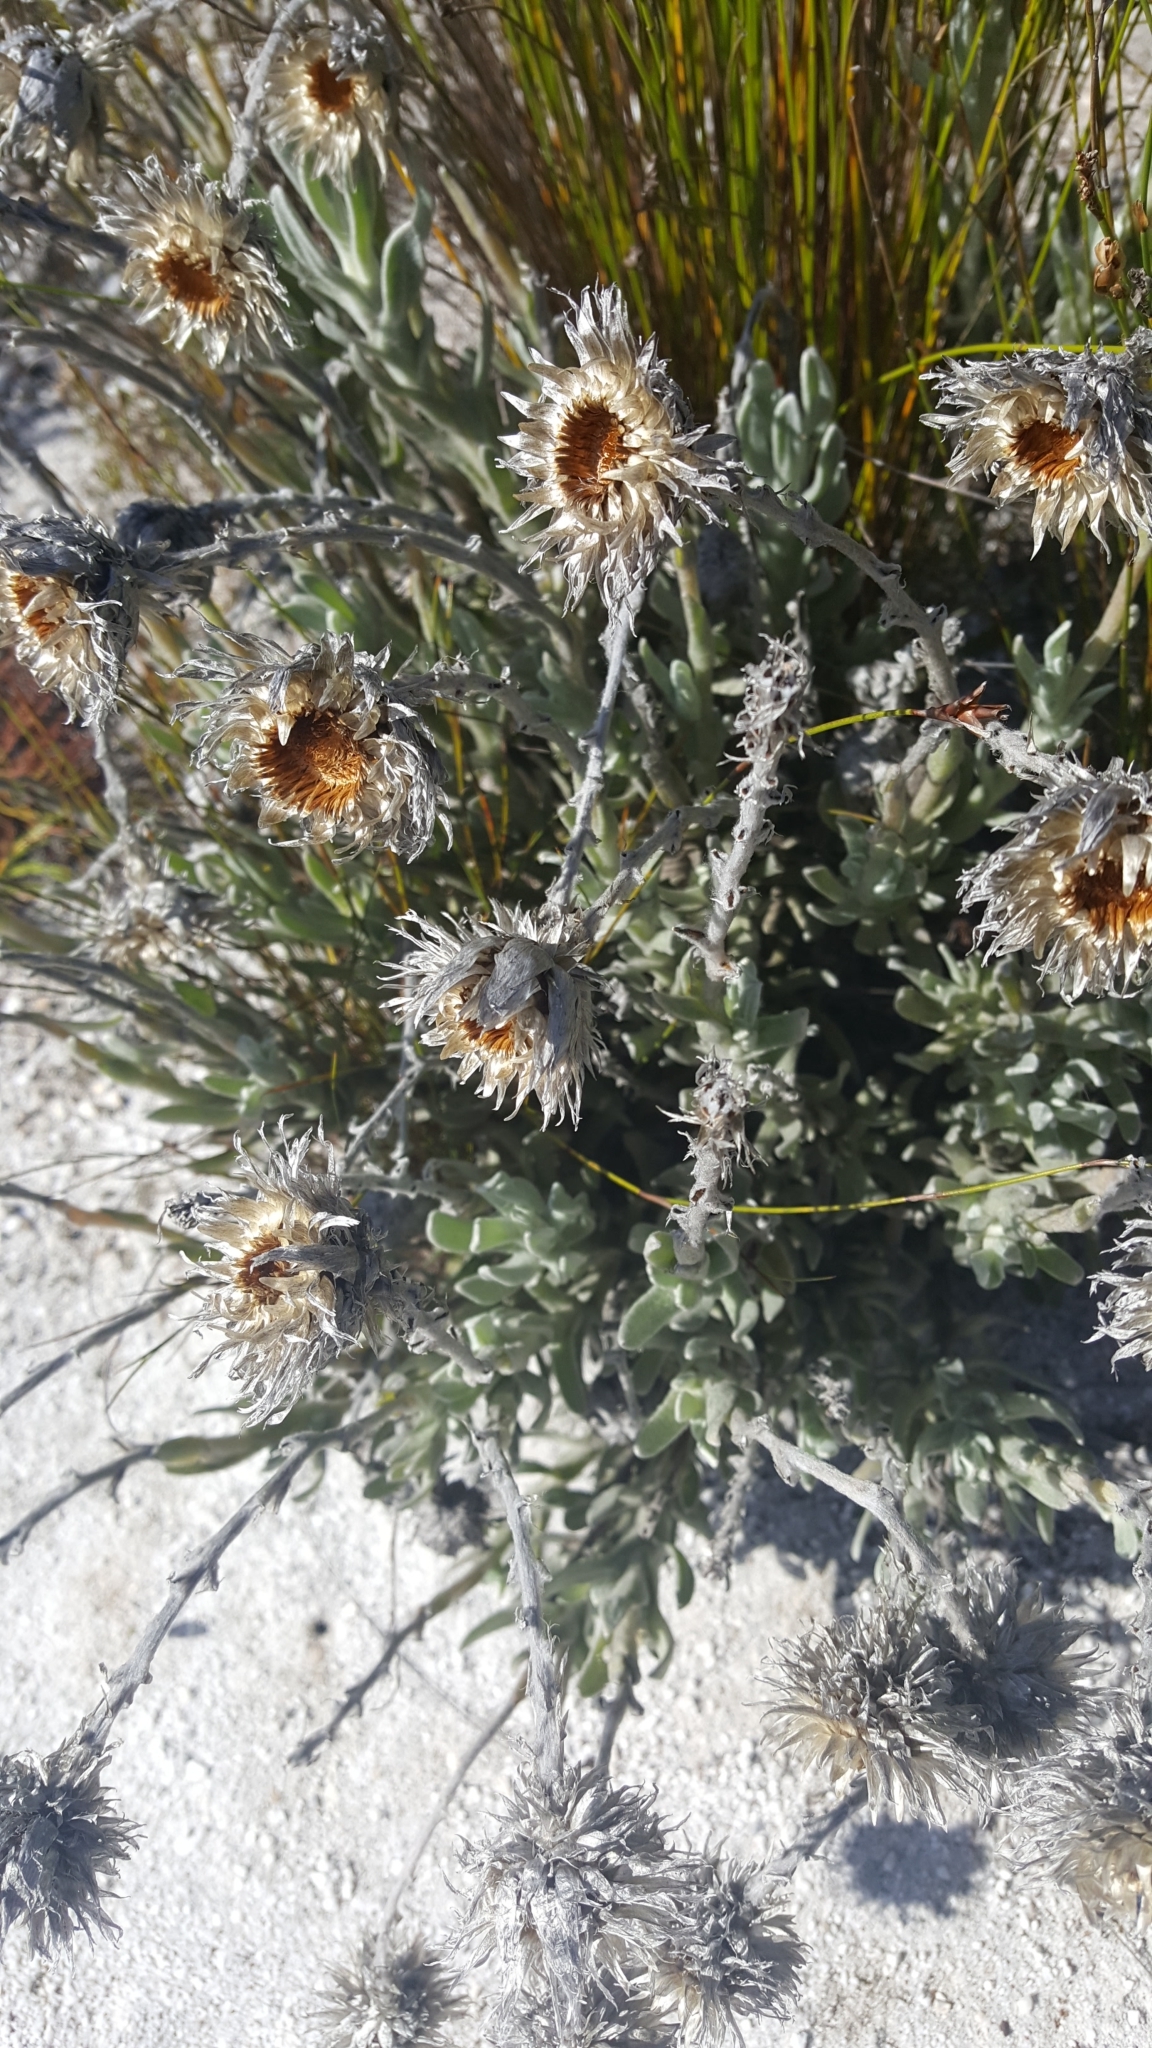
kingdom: Plantae
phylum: Tracheophyta
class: Magnoliopsida
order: Asterales
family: Asteraceae
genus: Syncarpha
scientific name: Syncarpha speciosissima
